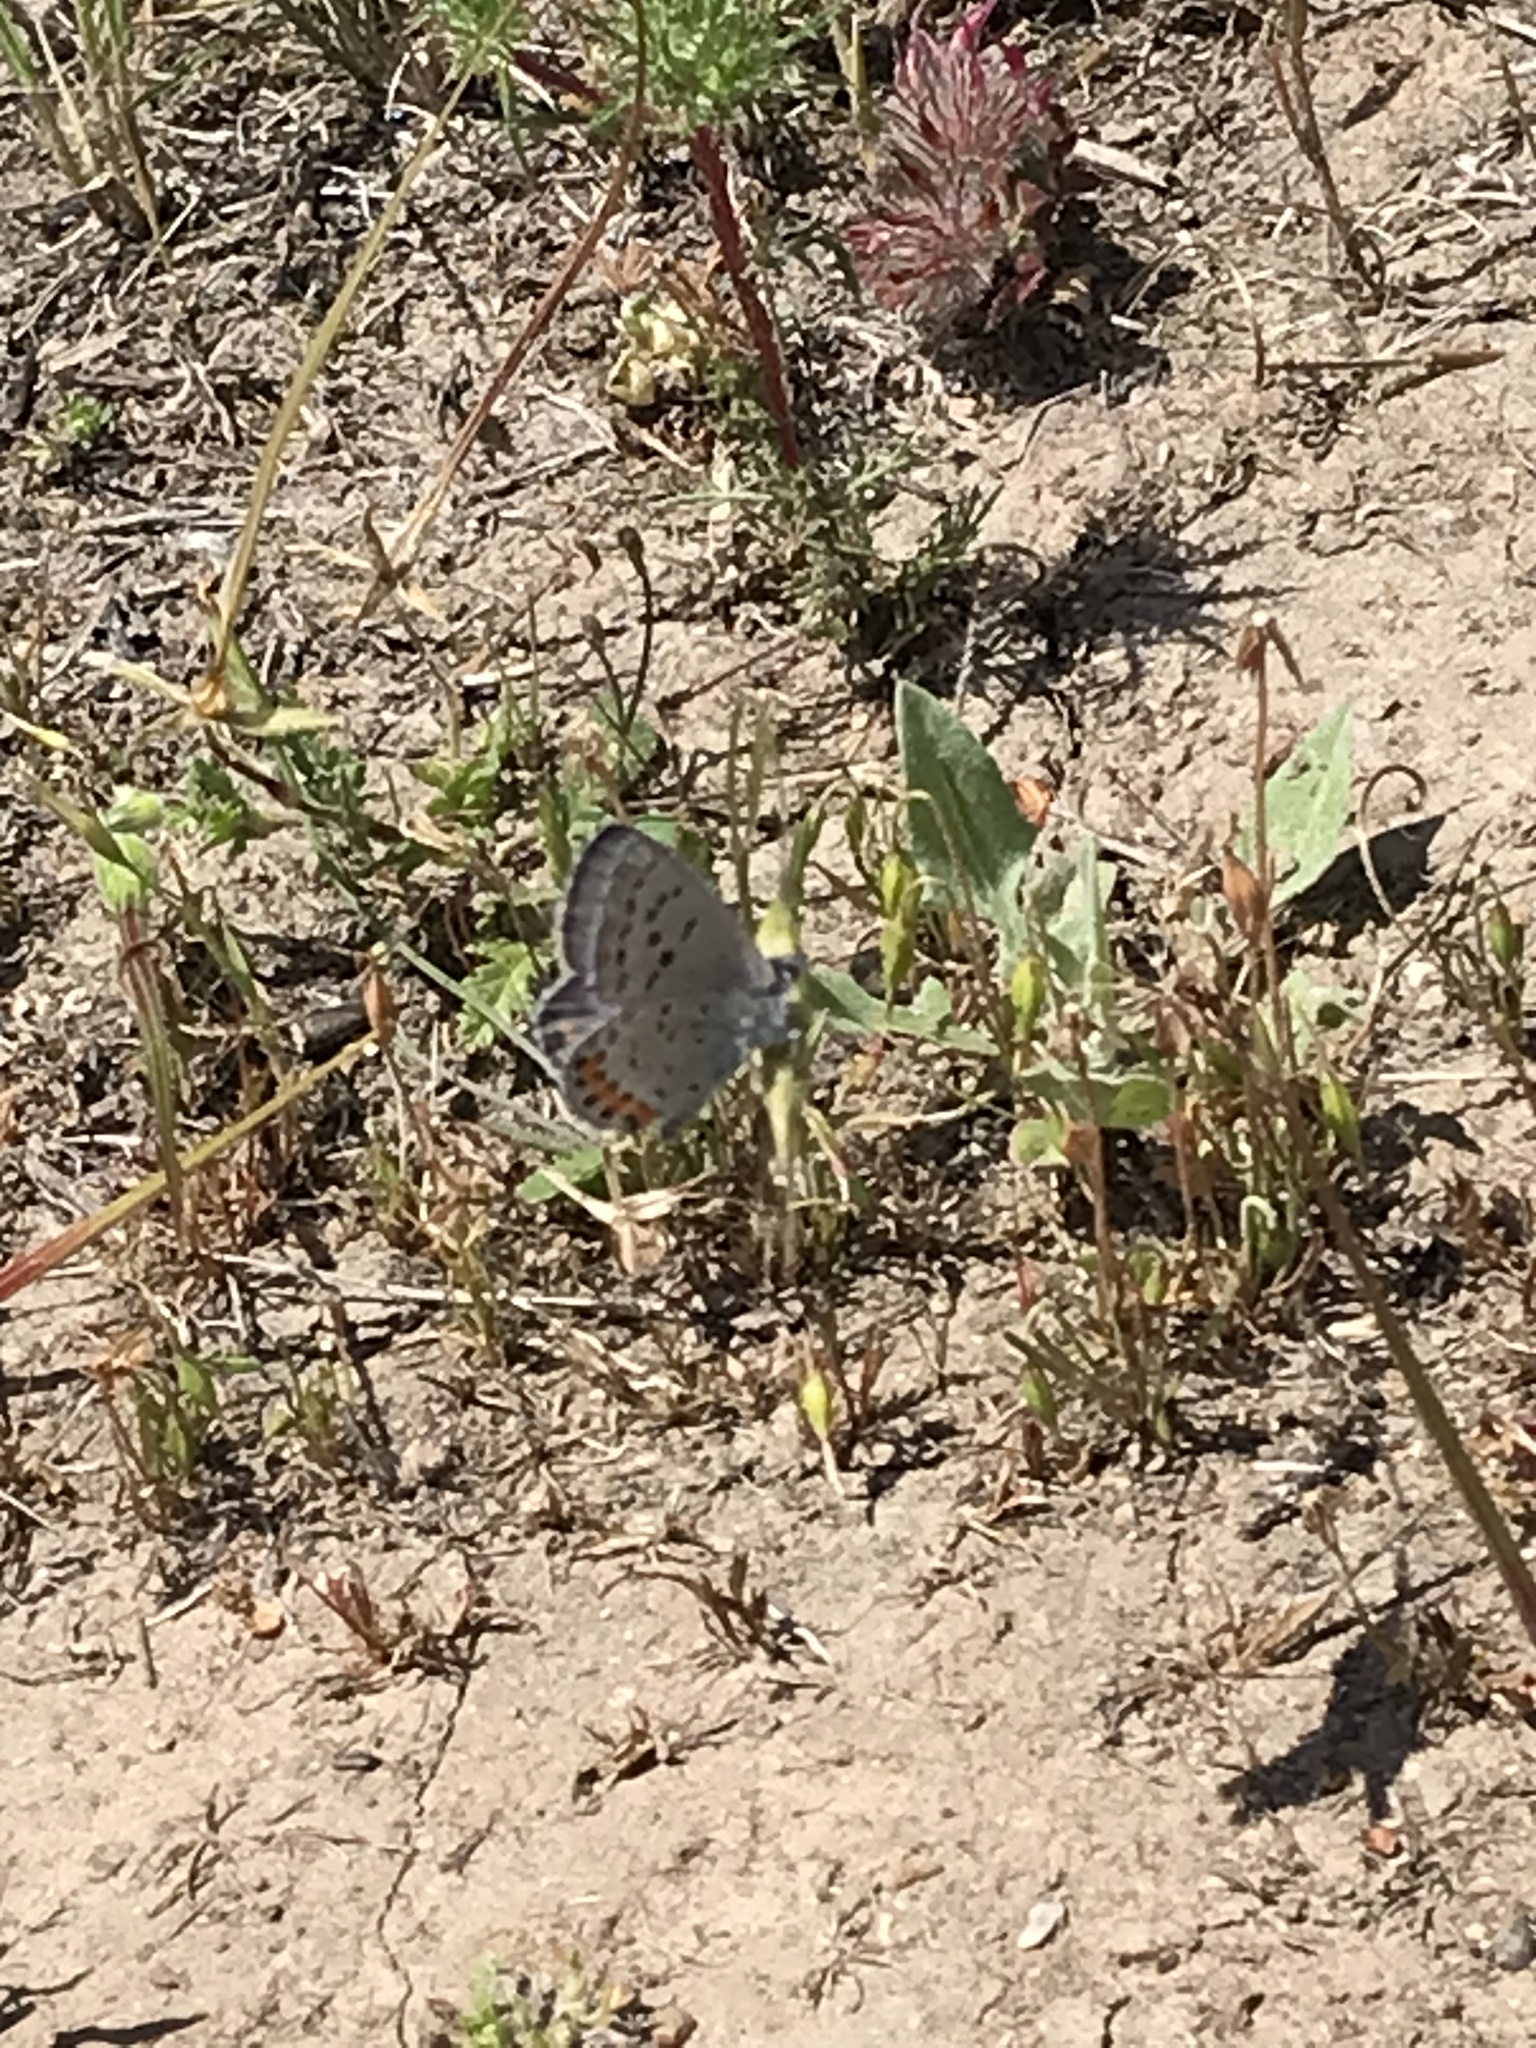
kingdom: Animalia
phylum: Arthropoda
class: Insecta
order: Lepidoptera
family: Lycaenidae
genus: Icaricia
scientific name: Icaricia acmon
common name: Acmon blue
